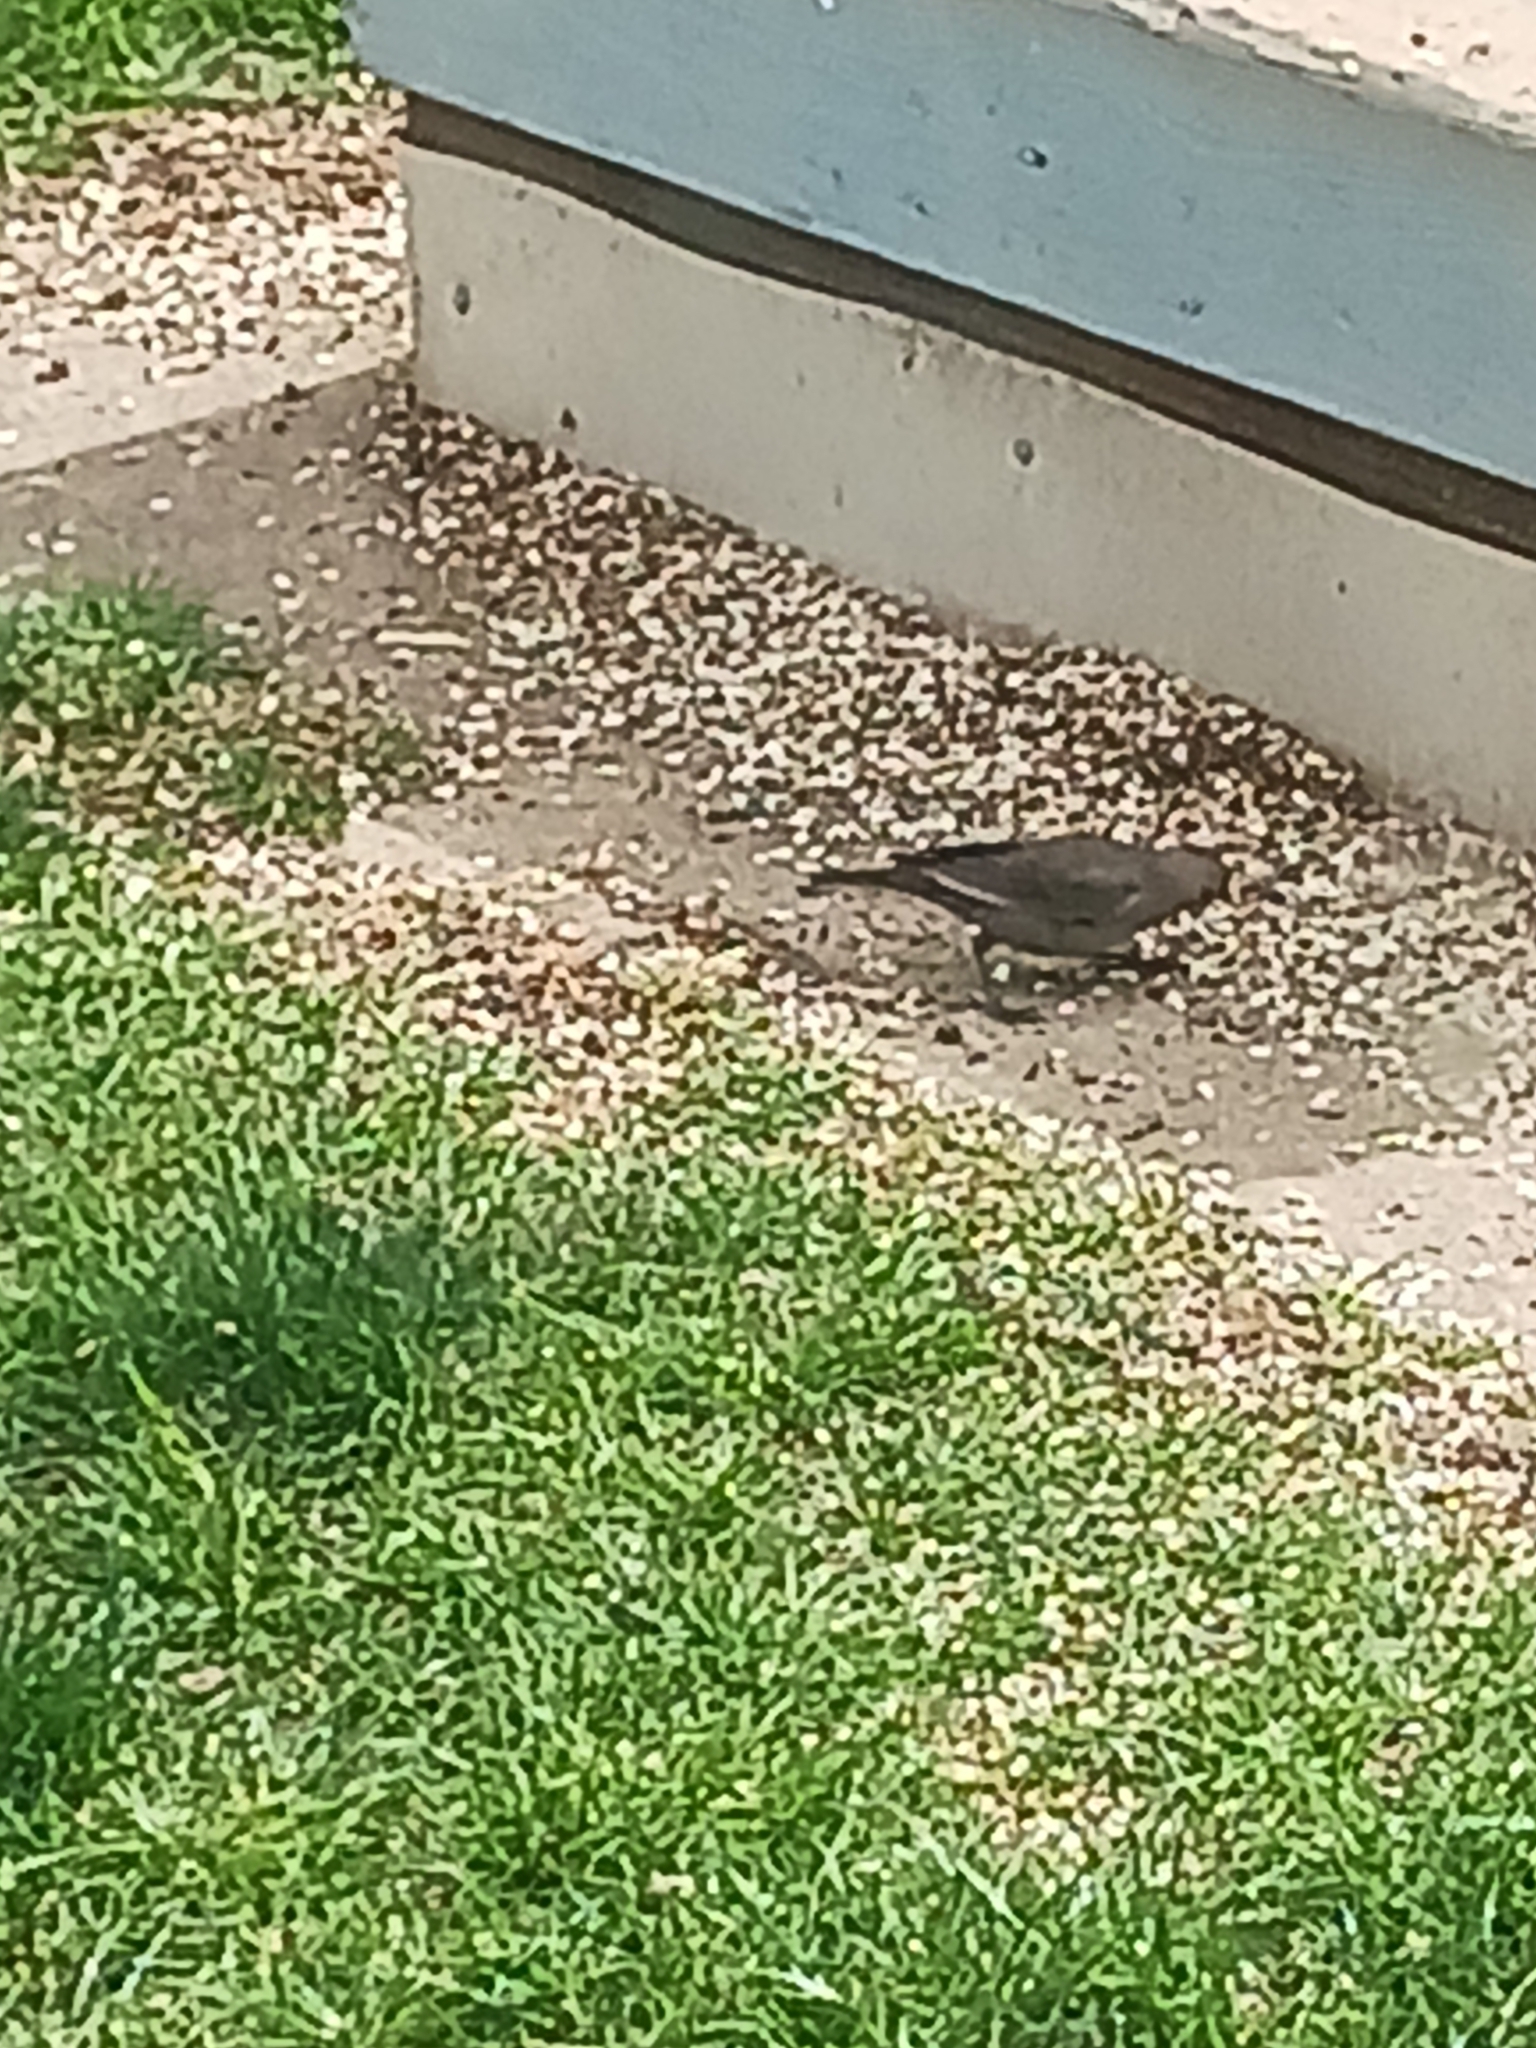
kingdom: Animalia
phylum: Chordata
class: Aves
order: Passeriformes
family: Icteridae
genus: Molothrus
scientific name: Molothrus ater
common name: Brown-headed cowbird
